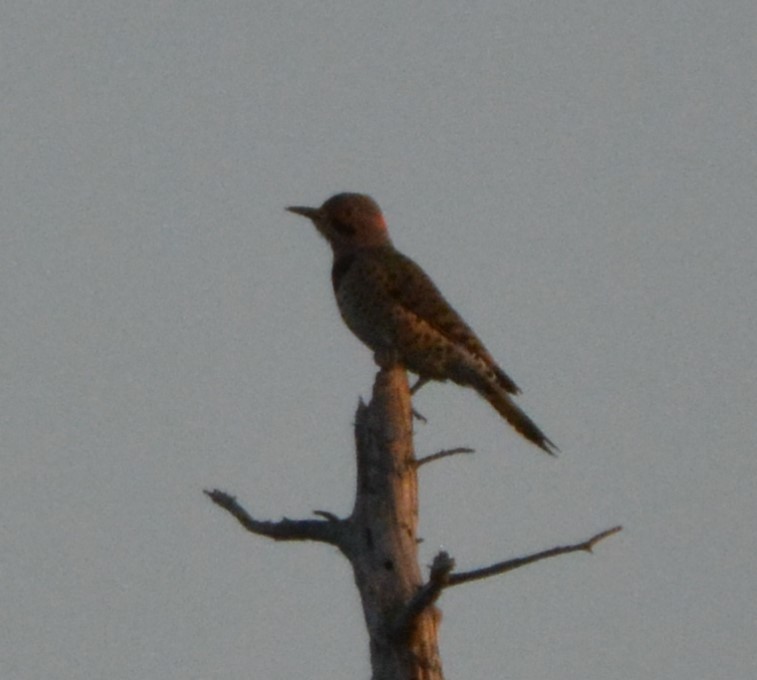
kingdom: Animalia
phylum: Chordata
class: Aves
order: Piciformes
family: Picidae
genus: Colaptes
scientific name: Colaptes auratus
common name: Northern flicker
